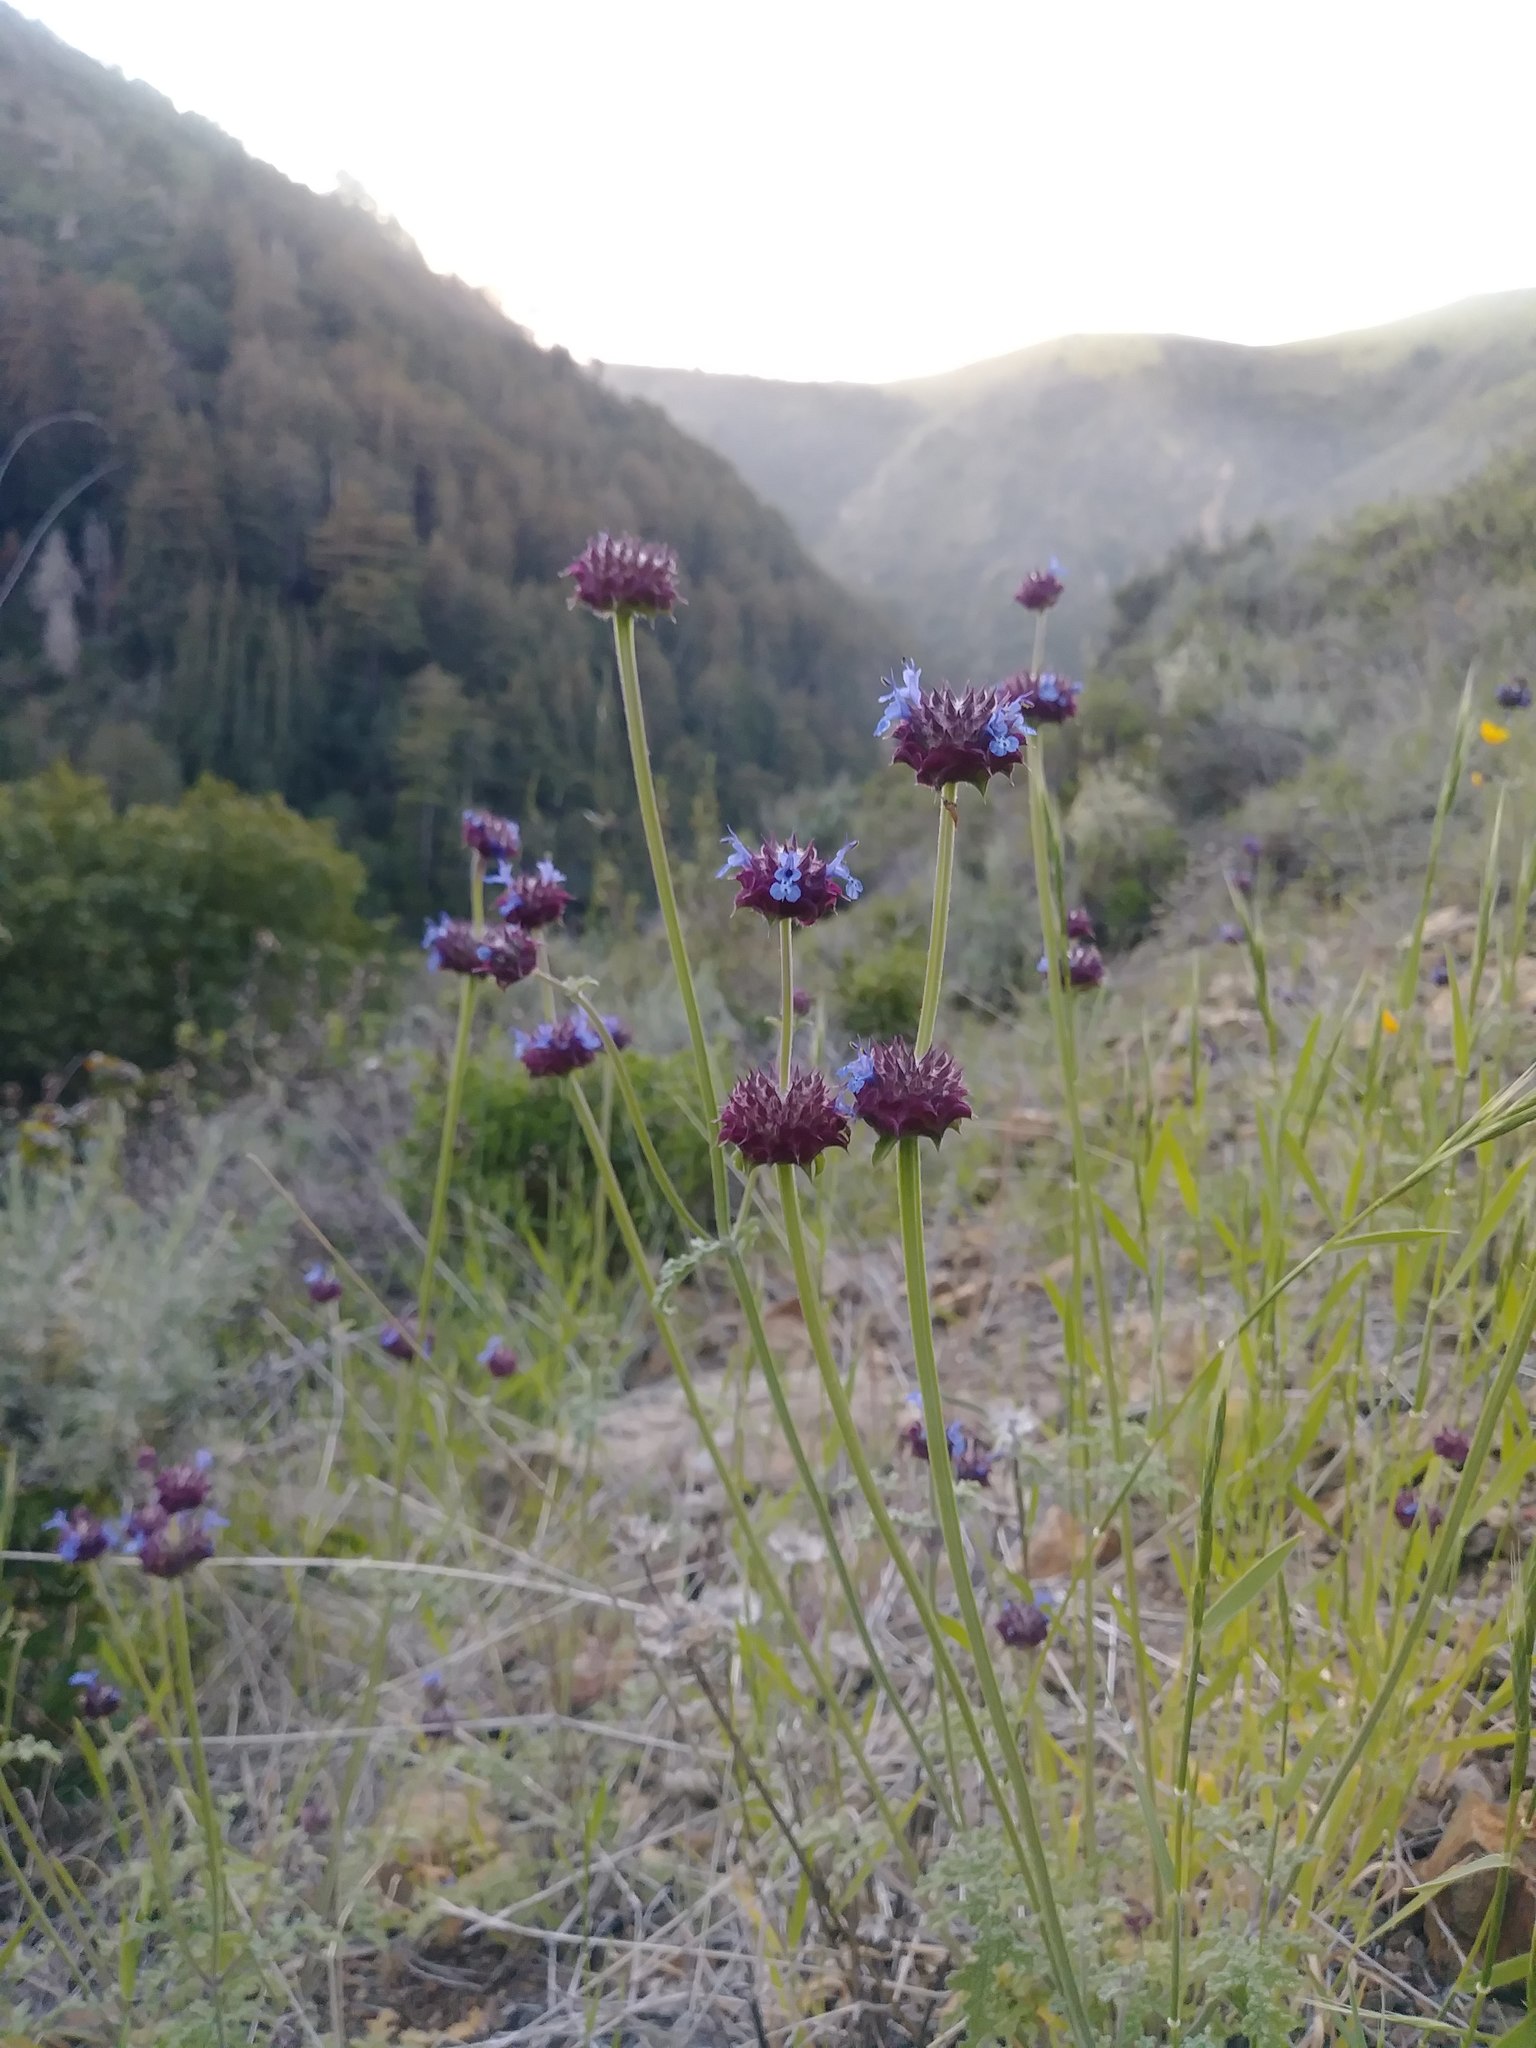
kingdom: Plantae
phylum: Tracheophyta
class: Magnoliopsida
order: Lamiales
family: Lamiaceae
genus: Salvia
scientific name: Salvia columbariae
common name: Chia
